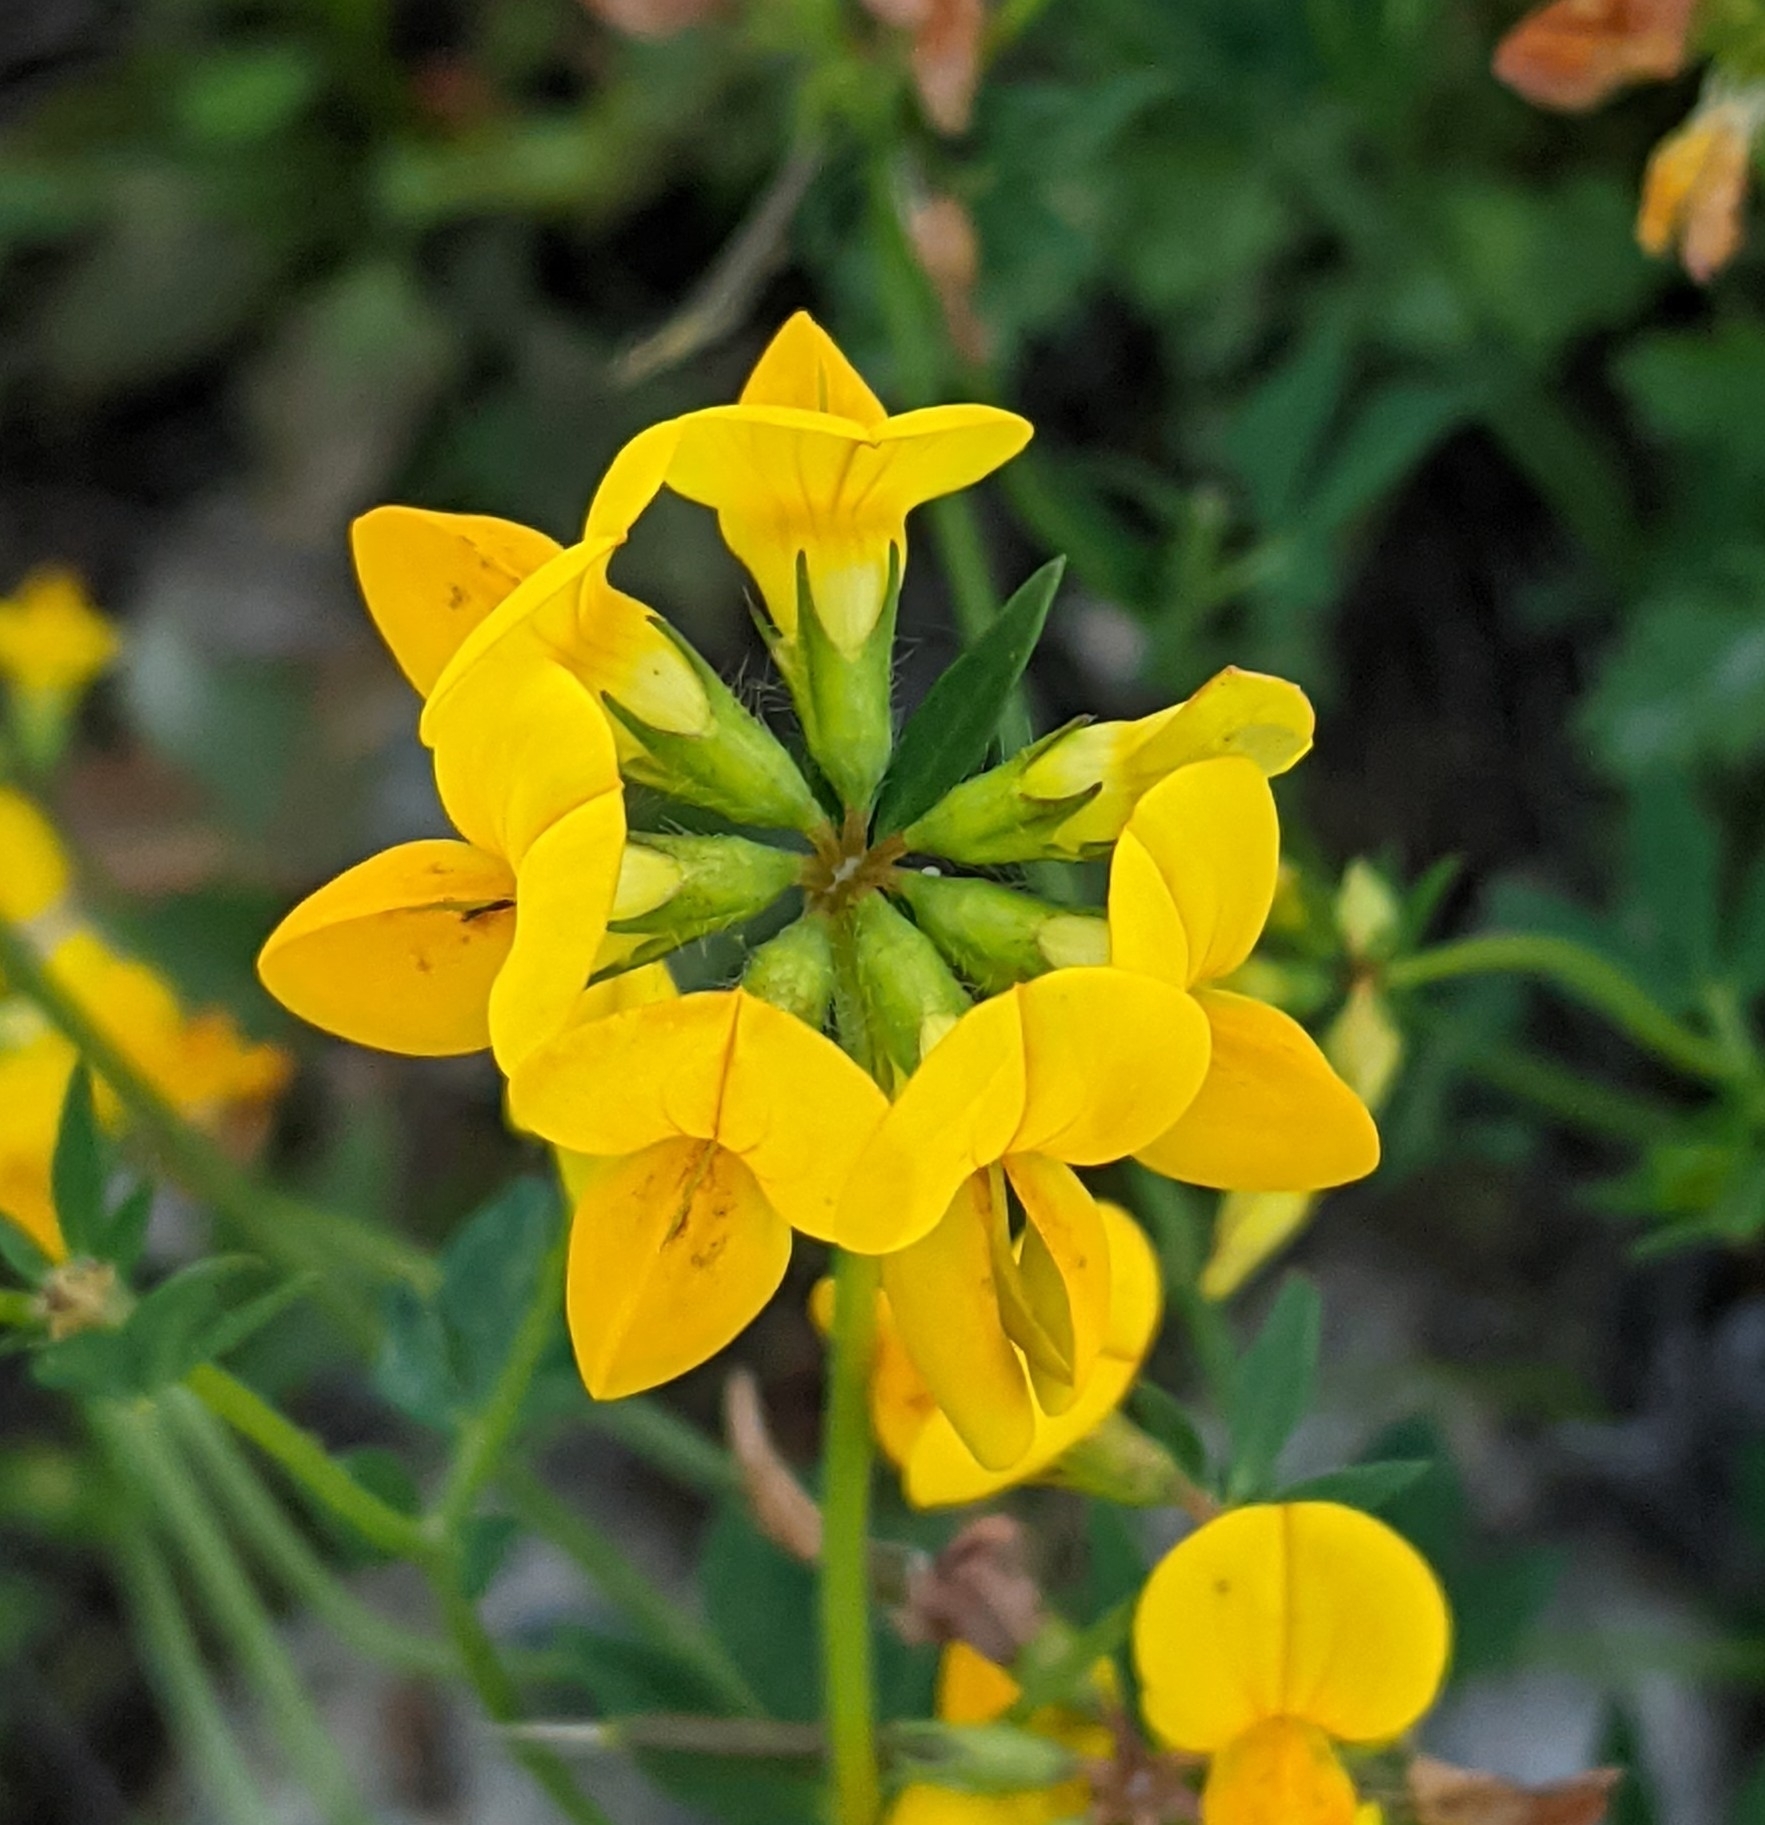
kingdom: Plantae
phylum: Tracheophyta
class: Magnoliopsida
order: Fabales
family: Fabaceae
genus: Lotus
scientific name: Lotus corniculatus
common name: Common bird's-foot-trefoil
